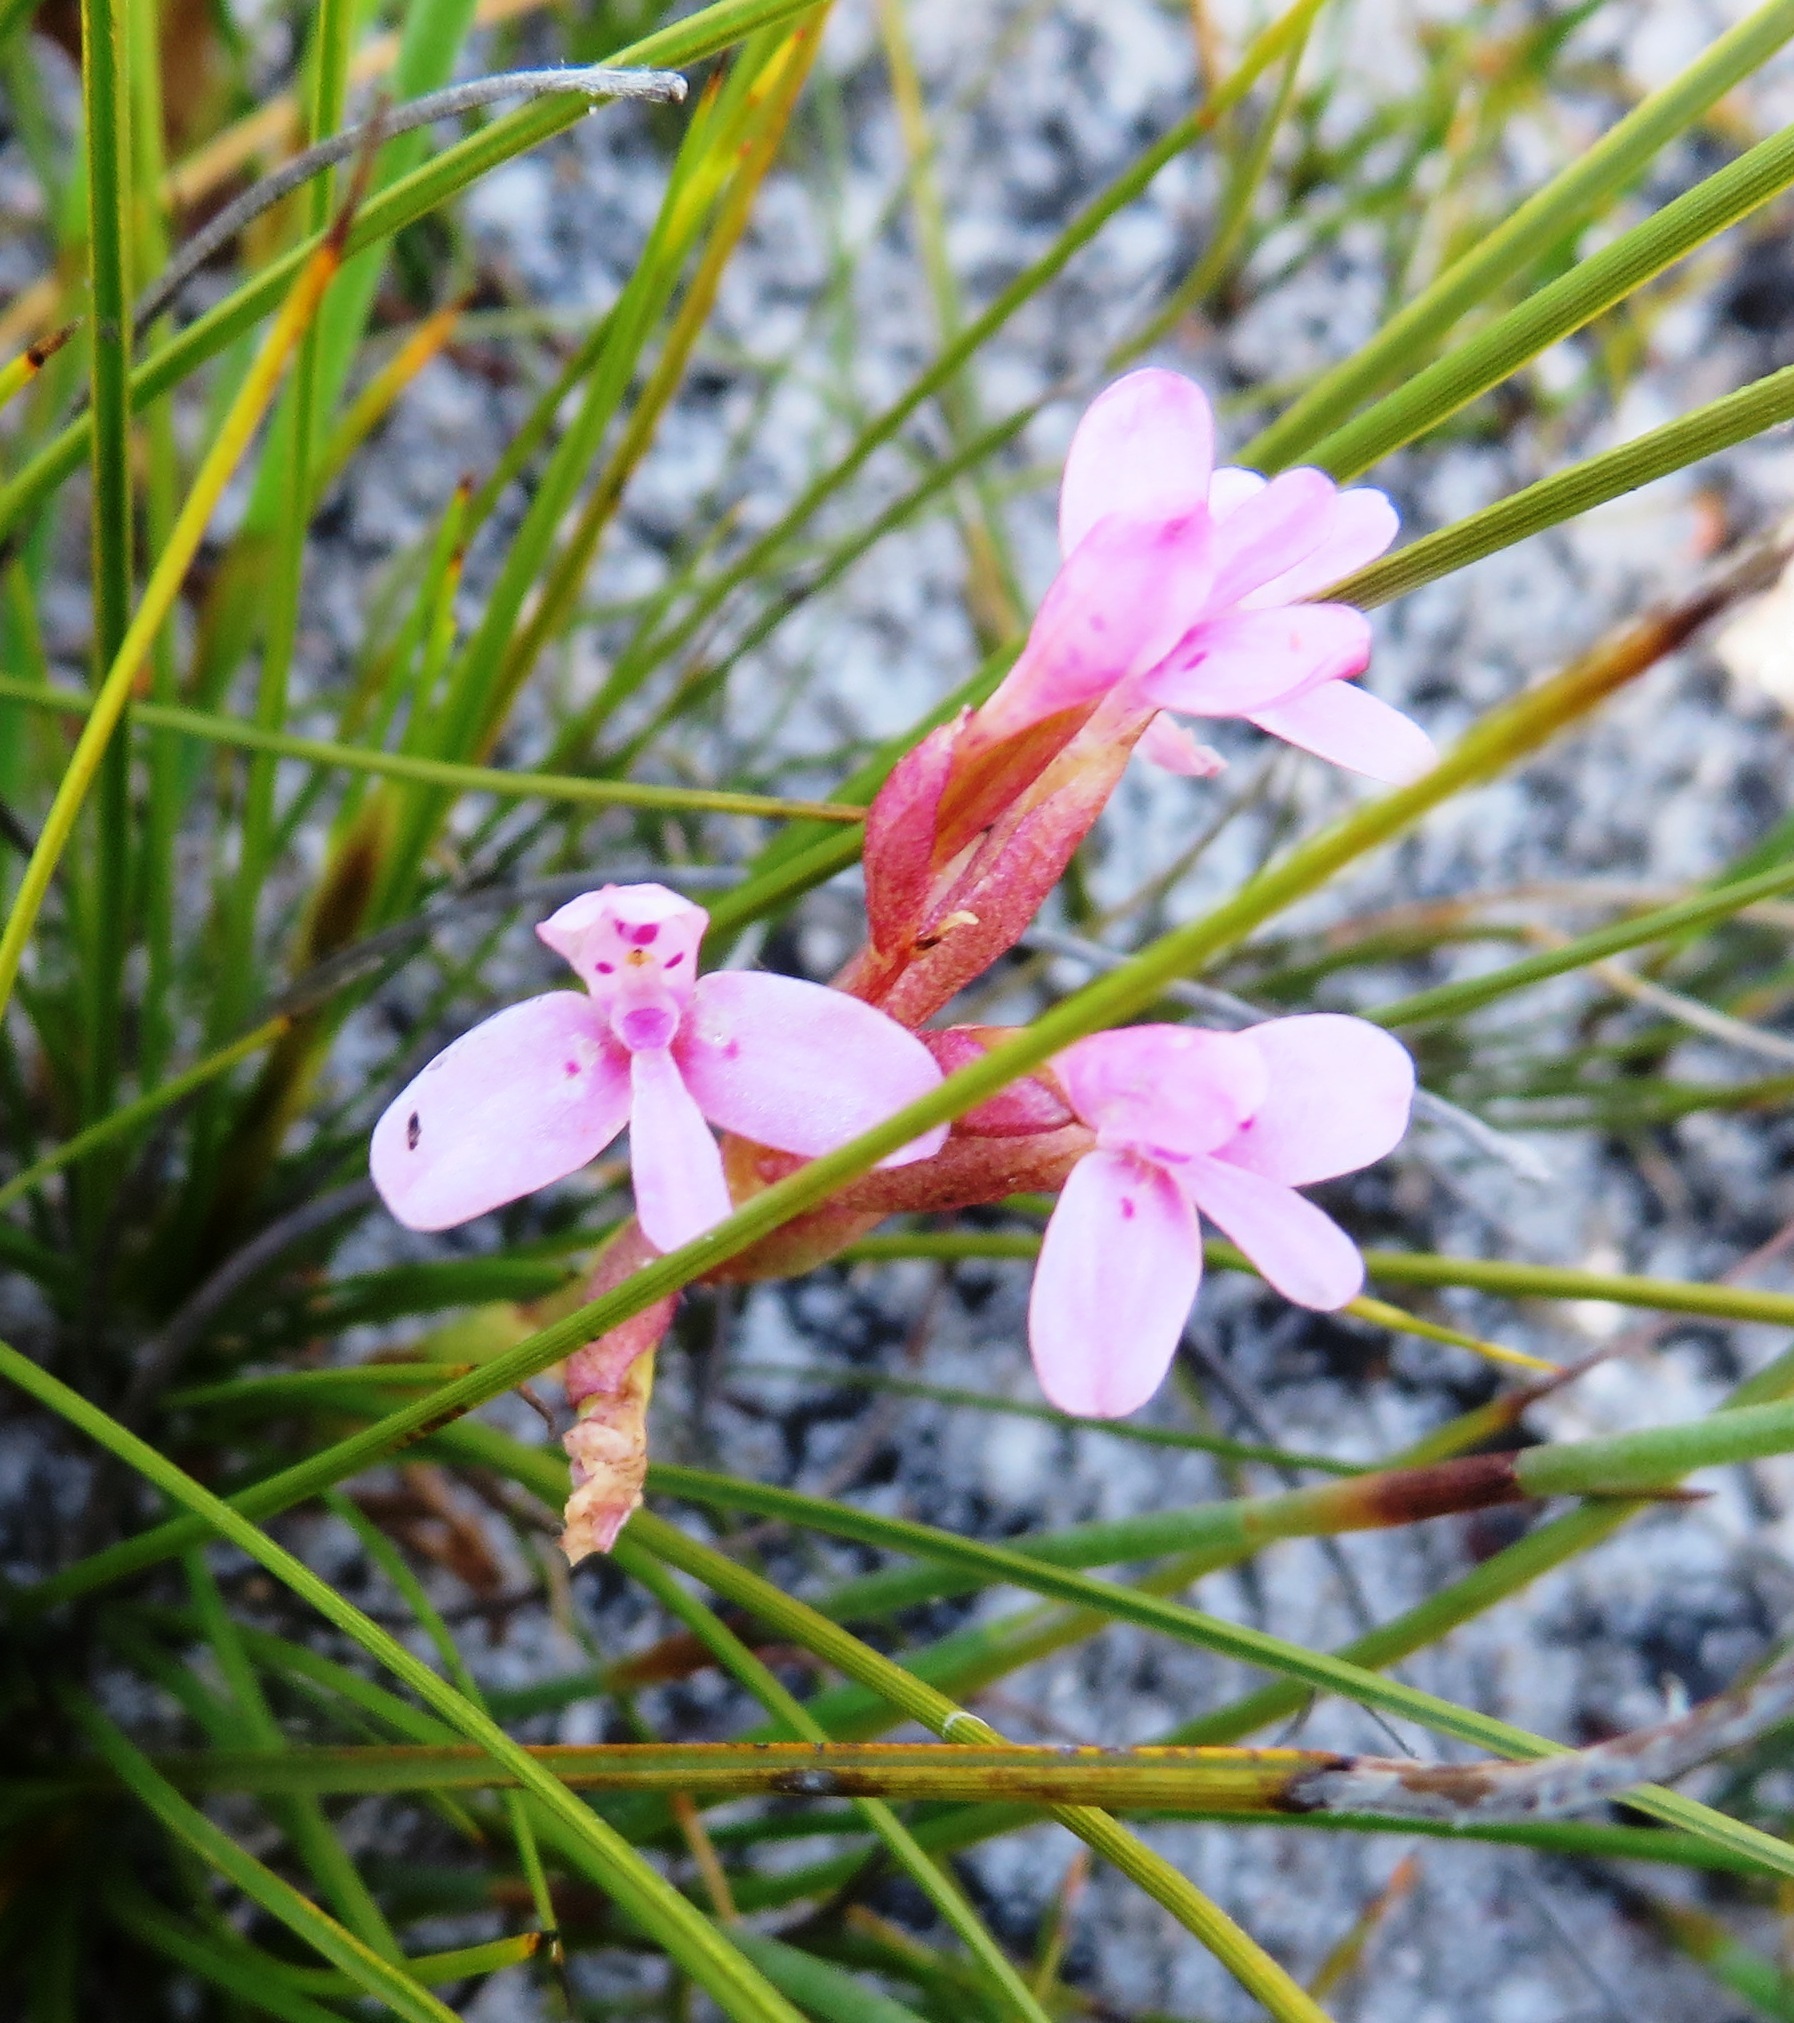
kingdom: Plantae
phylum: Tracheophyta
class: Liliopsida
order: Asparagales
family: Orchidaceae
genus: Disa
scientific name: Disa vaginata
